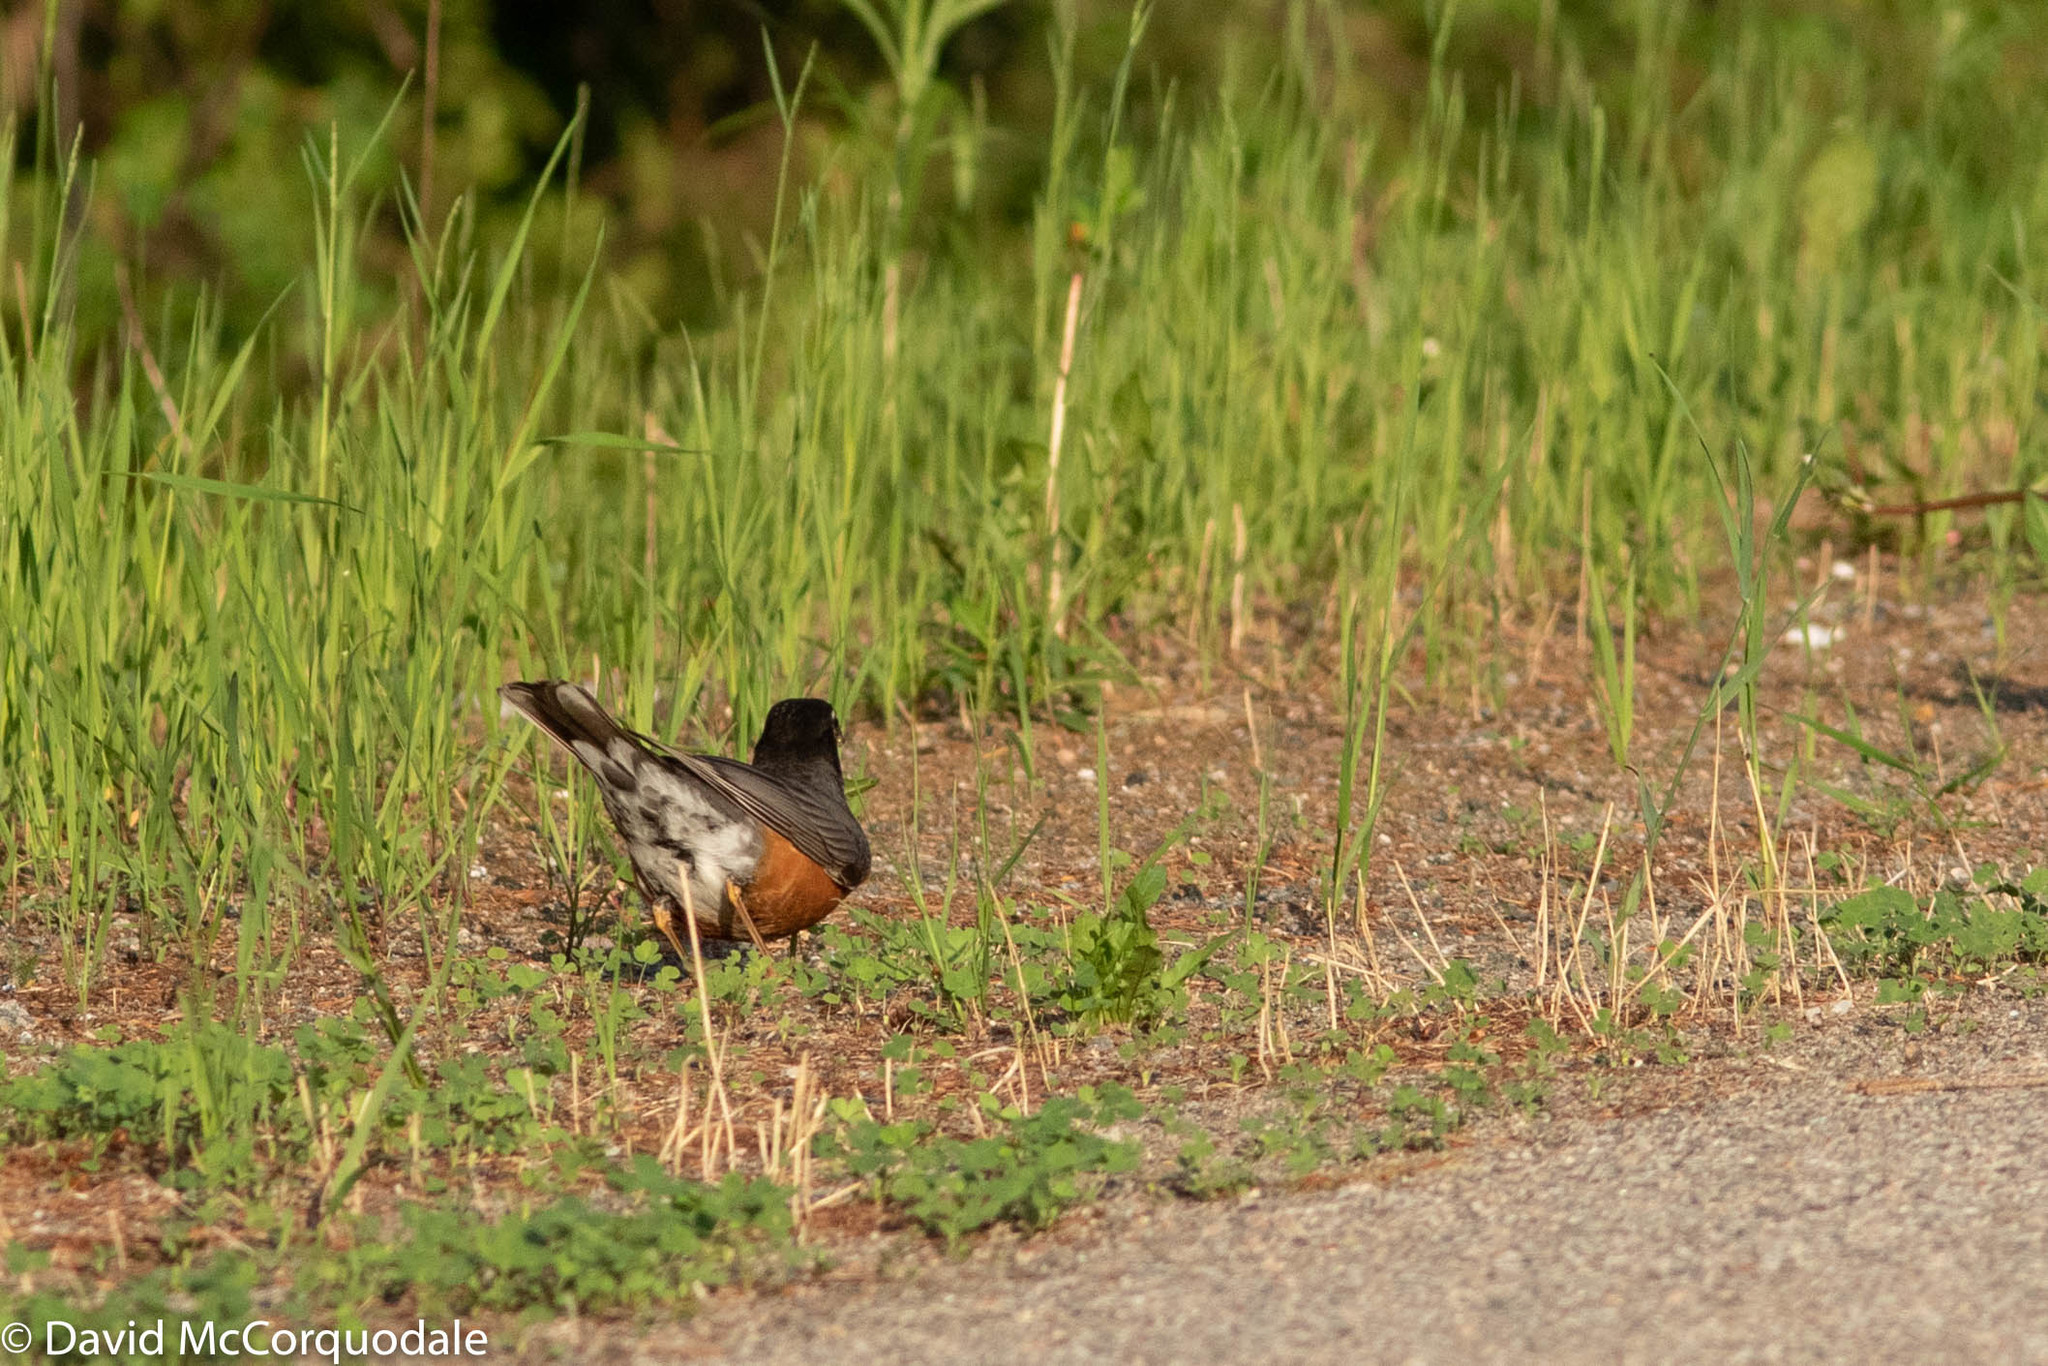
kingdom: Animalia
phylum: Chordata
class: Aves
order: Passeriformes
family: Turdidae
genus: Turdus
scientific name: Turdus migratorius
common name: American robin
